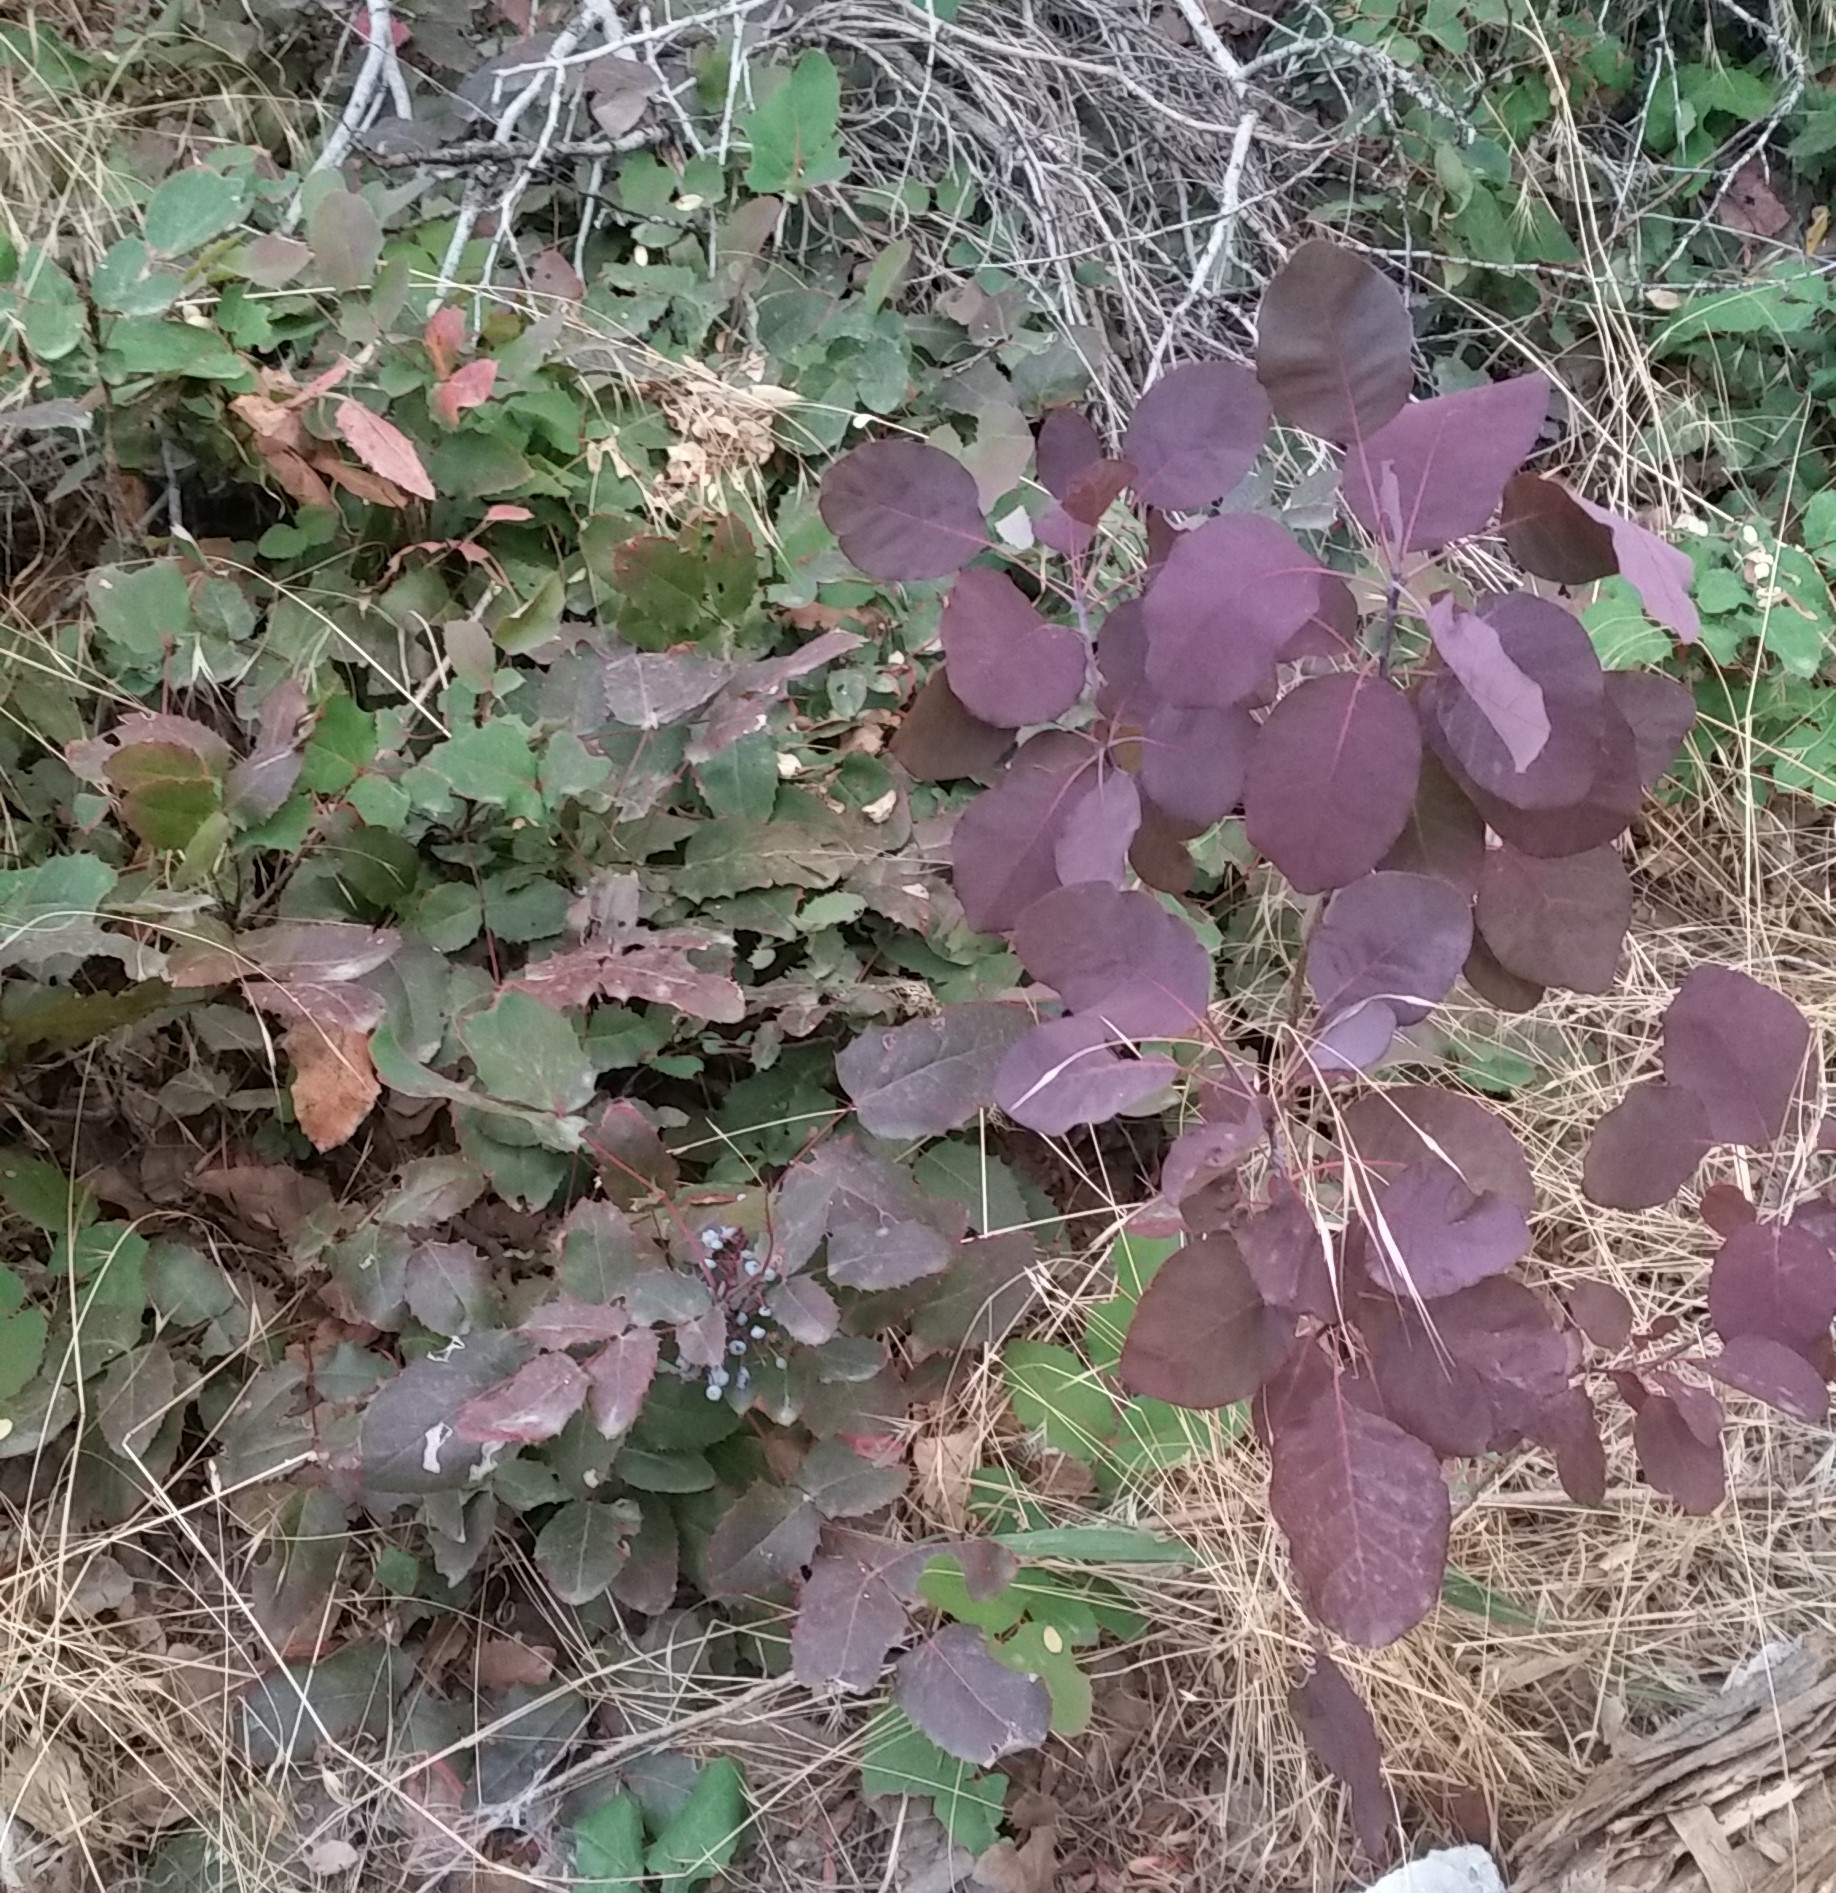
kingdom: Plantae
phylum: Tracheophyta
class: Magnoliopsida
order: Ranunculales
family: Berberidaceae
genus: Mahonia
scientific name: Mahonia repens
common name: Creeping oregon-grape
